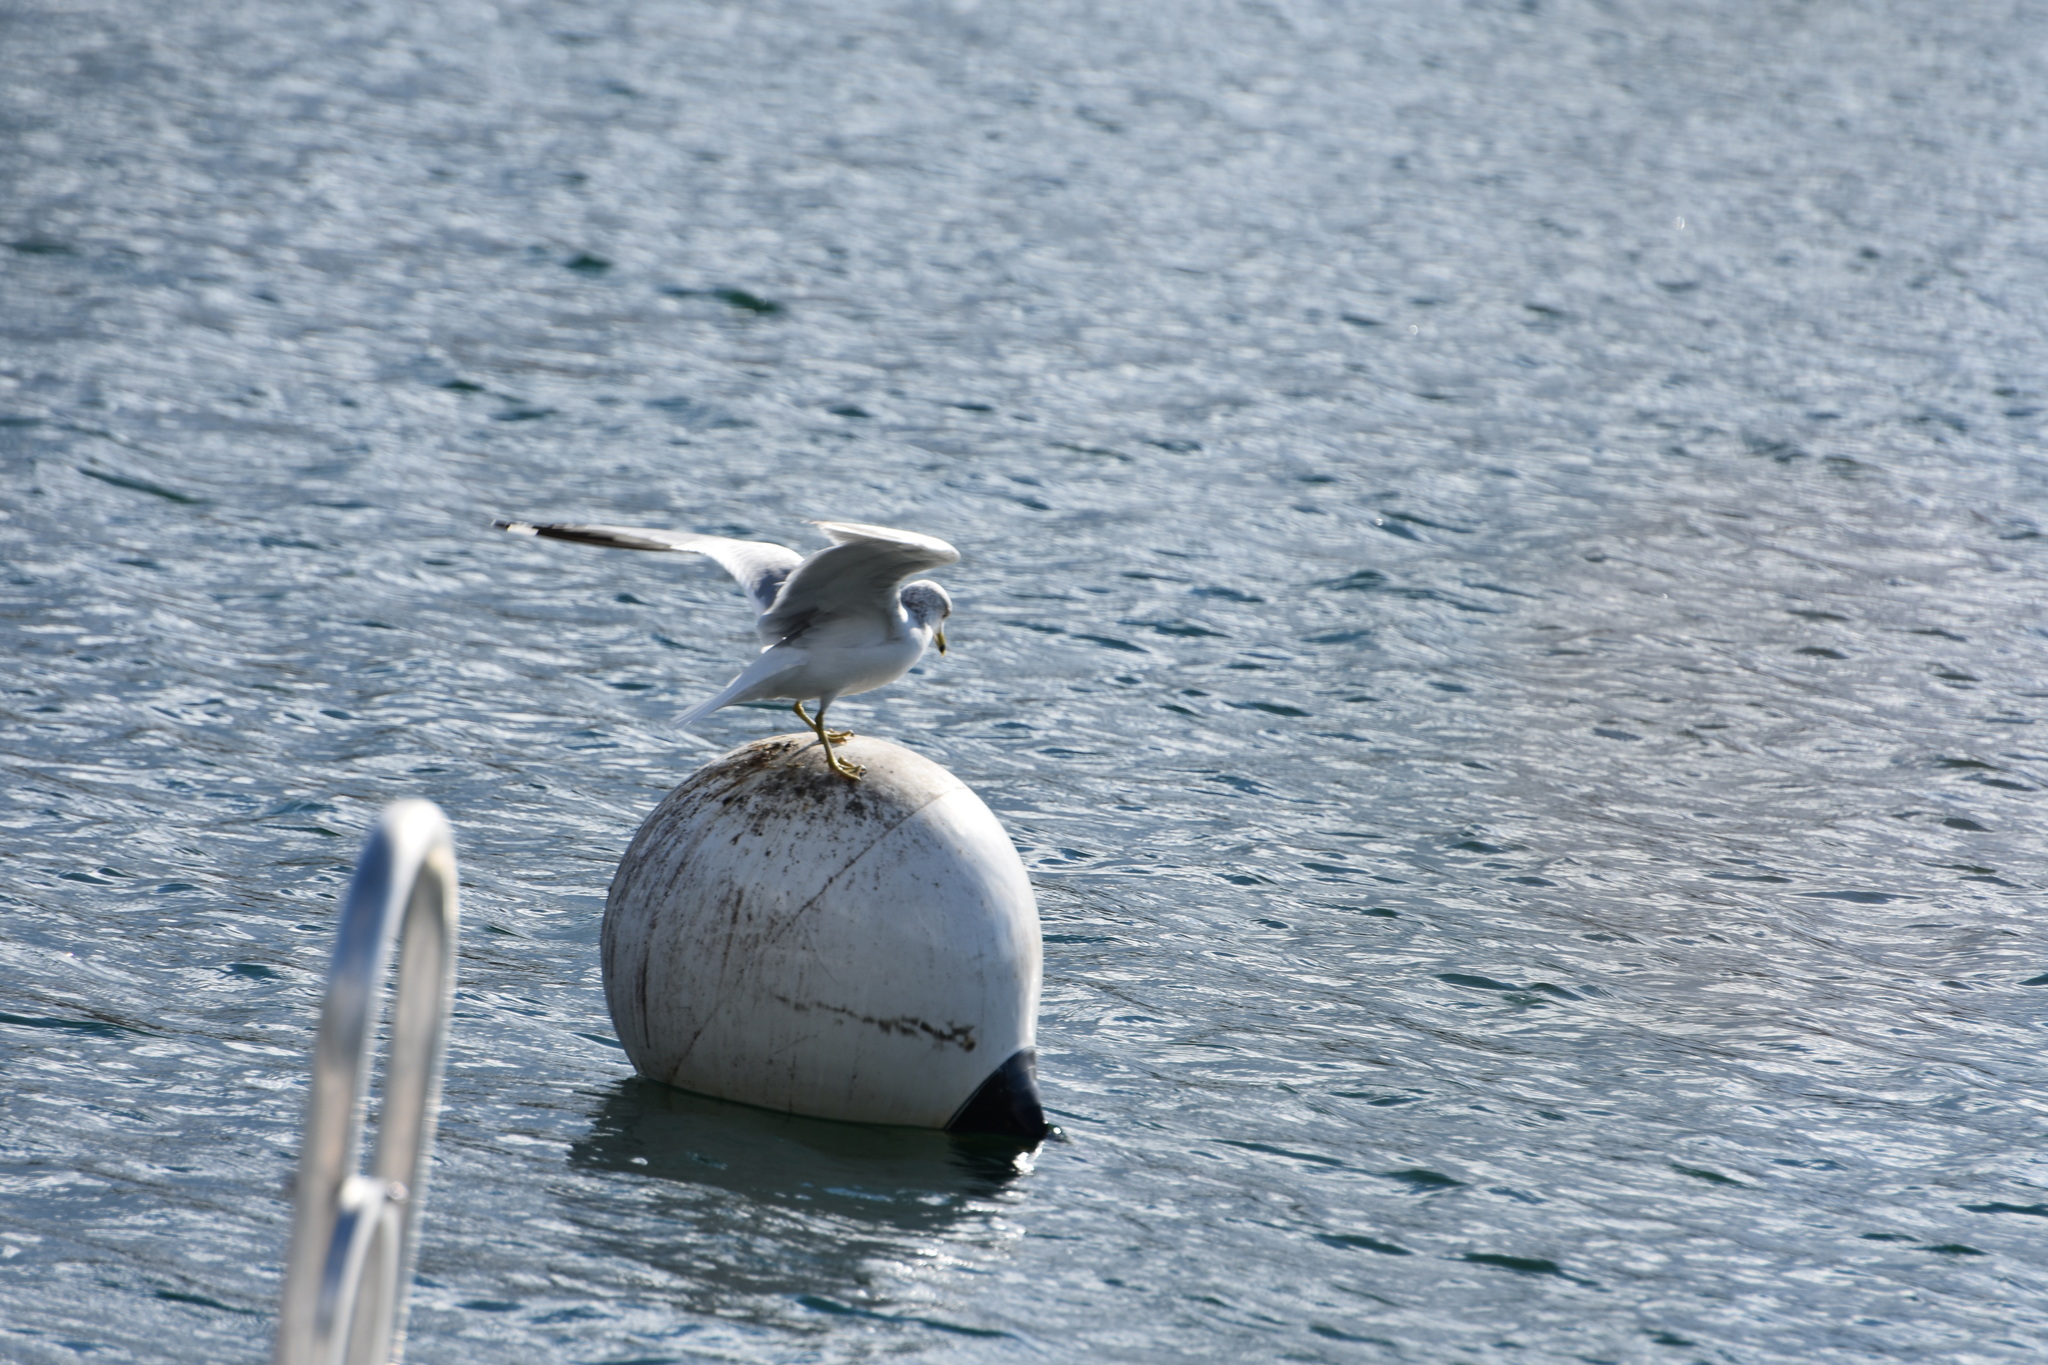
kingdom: Animalia
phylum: Chordata
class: Aves
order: Charadriiformes
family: Laridae
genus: Larus
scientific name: Larus delawarensis
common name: Ring-billed gull
